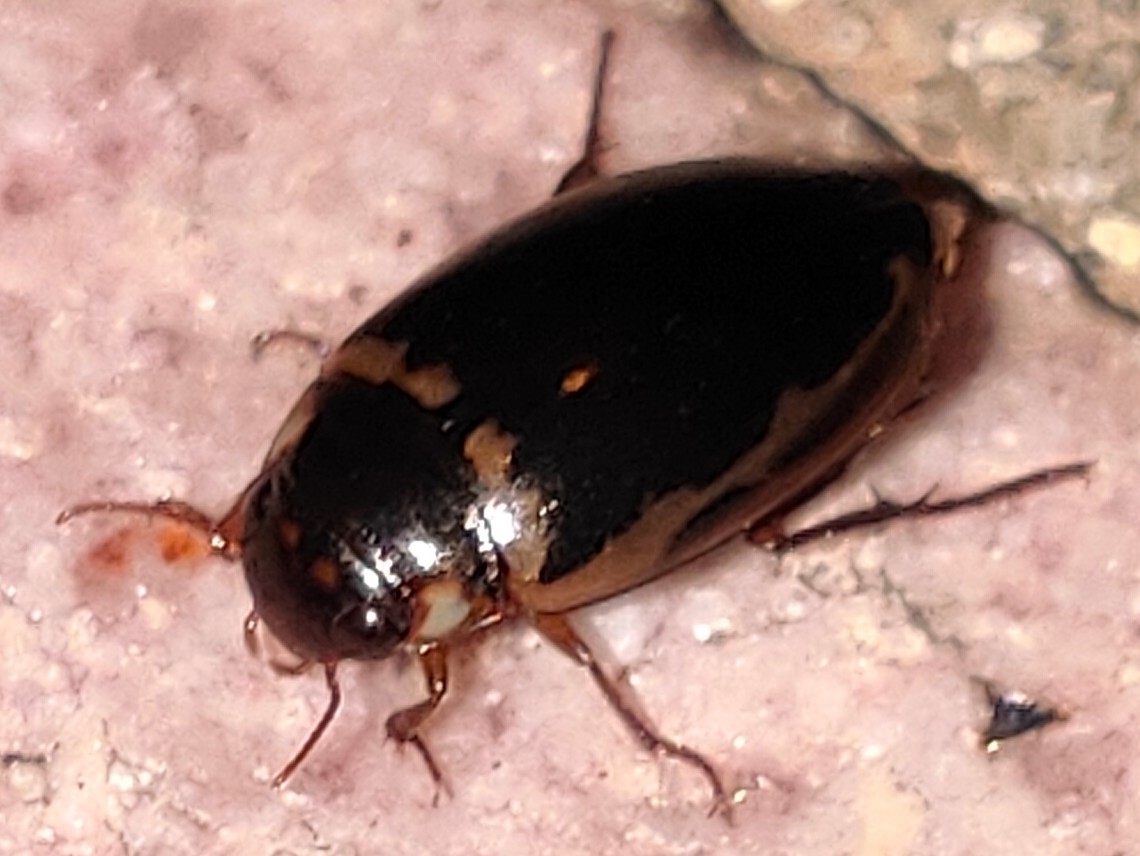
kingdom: Animalia
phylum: Arthropoda
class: Insecta
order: Coleoptera
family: Dytiscidae
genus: Platambus
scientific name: Platambus fimbriatus
